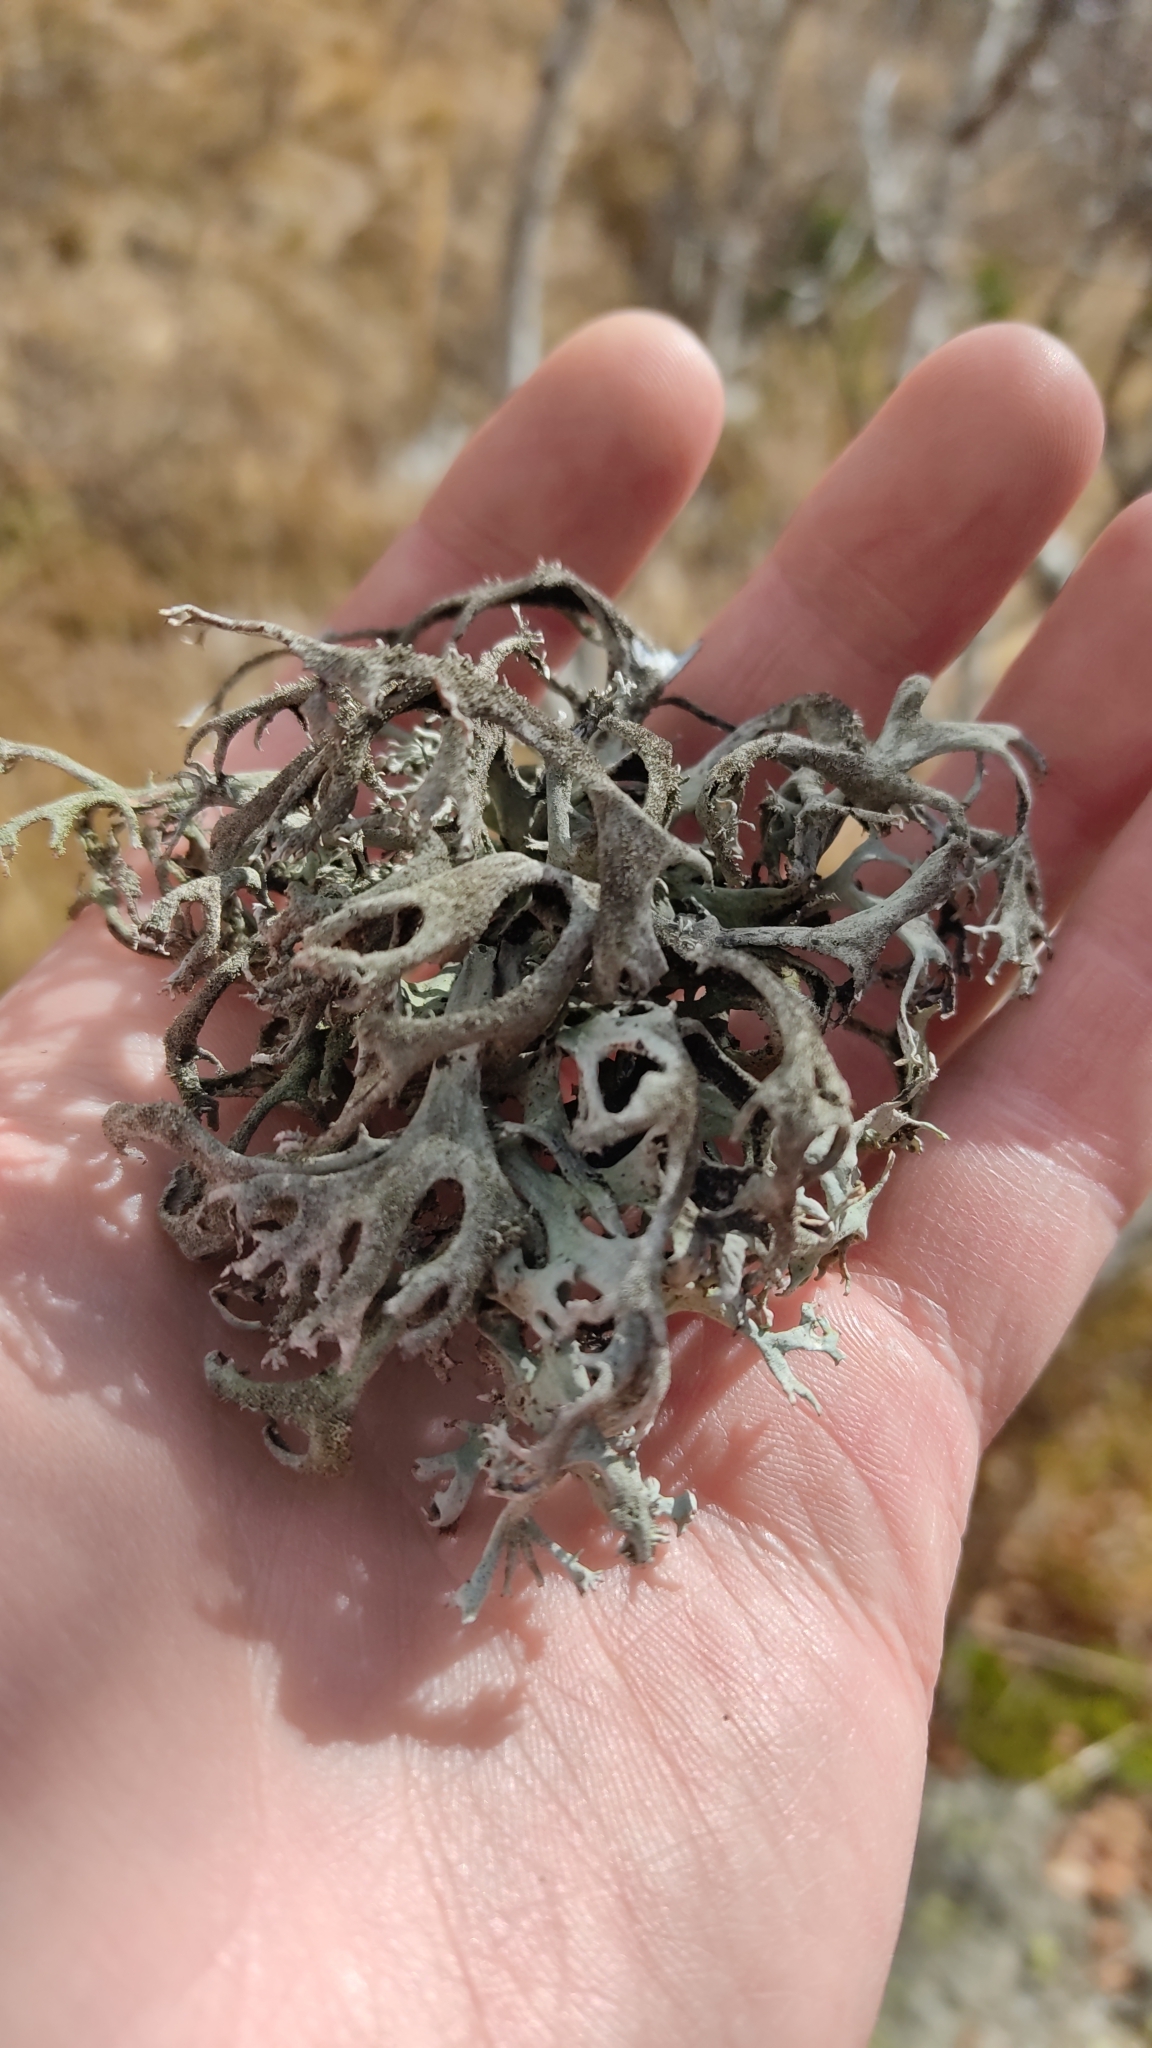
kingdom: Fungi
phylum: Ascomycota
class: Lecanoromycetes
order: Lecanorales
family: Parmeliaceae
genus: Pseudevernia
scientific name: Pseudevernia furfuracea
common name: Tree moss
